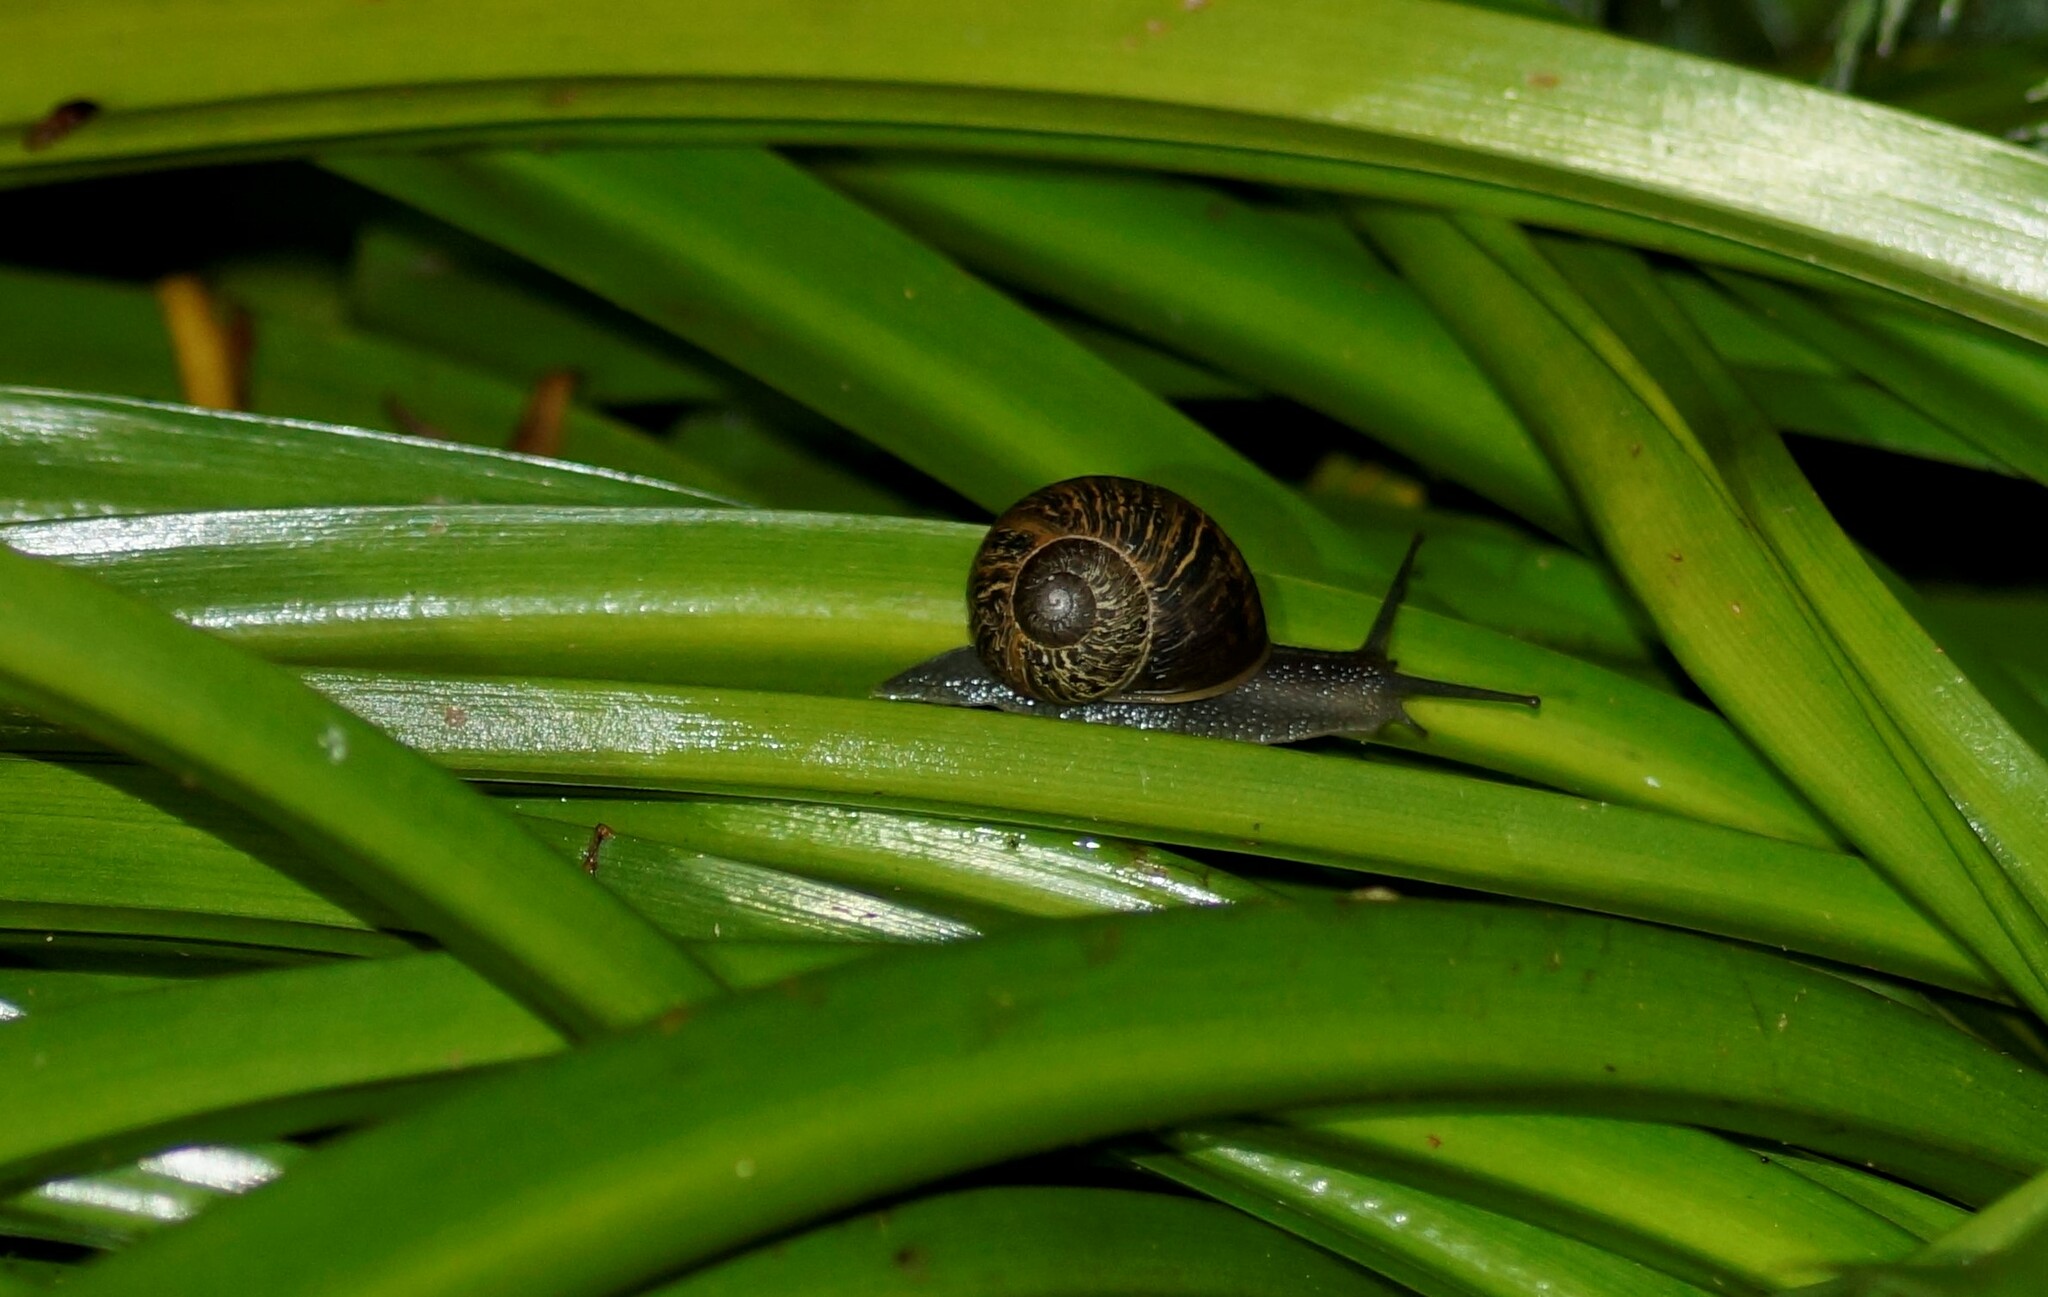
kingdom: Animalia
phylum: Mollusca
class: Gastropoda
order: Stylommatophora
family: Helicidae
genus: Cornu
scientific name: Cornu aspersum
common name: Brown garden snail
